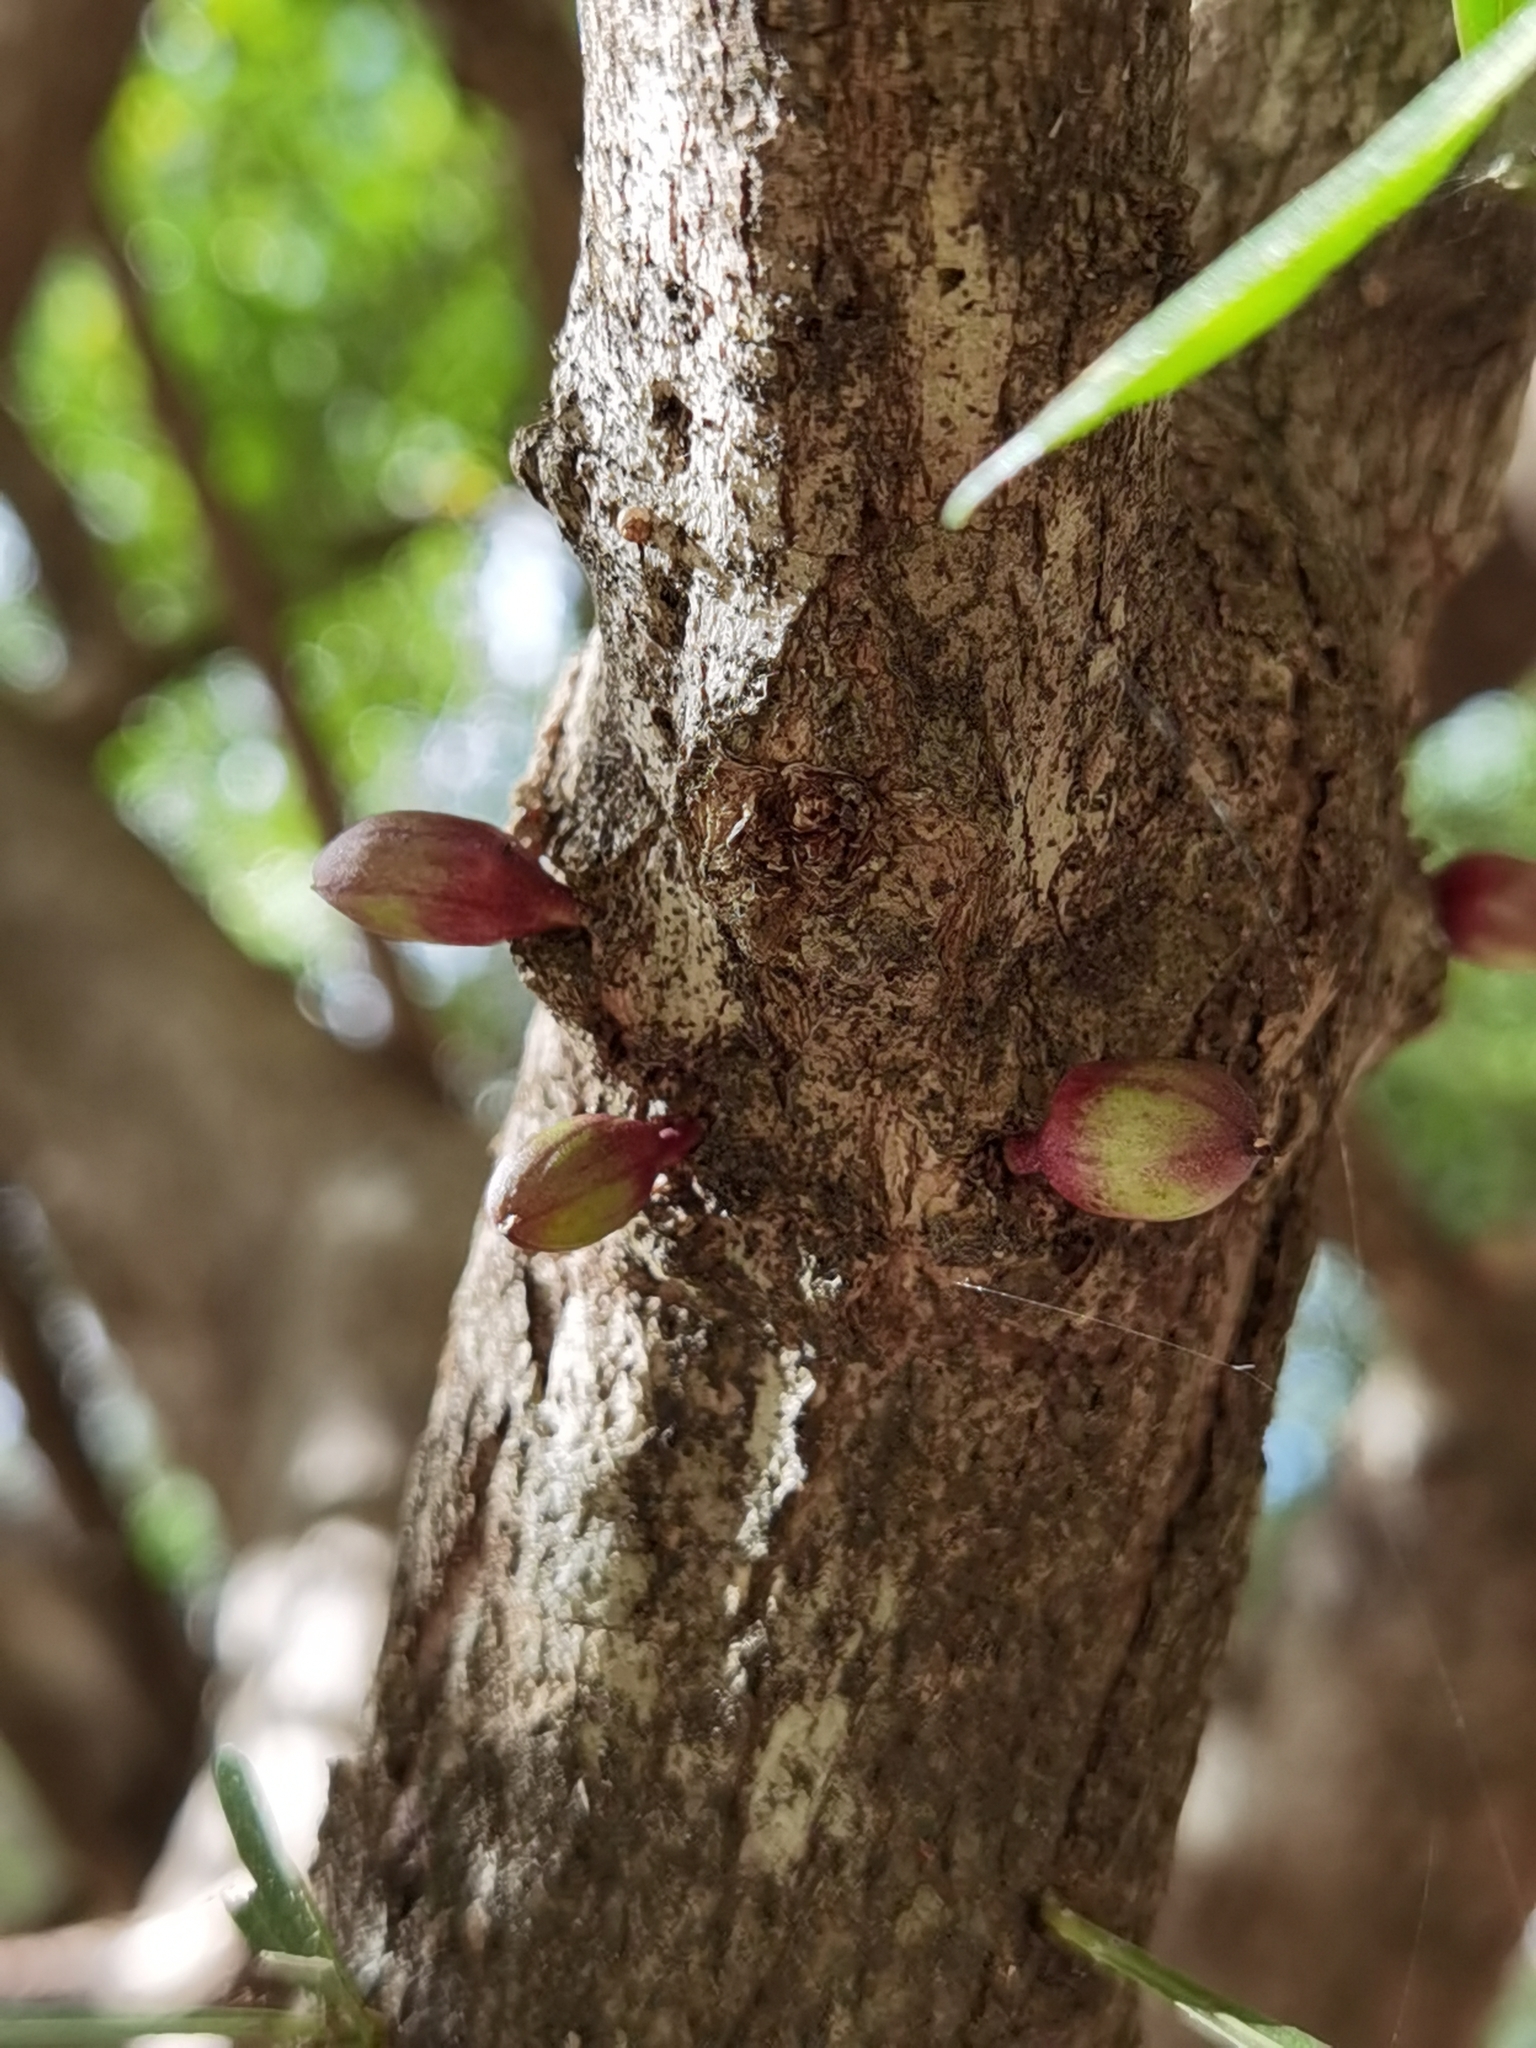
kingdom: Plantae
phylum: Tracheophyta
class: Magnoliopsida
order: Lamiales
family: Bignoniaceae
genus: Crescentia
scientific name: Crescentia alata
